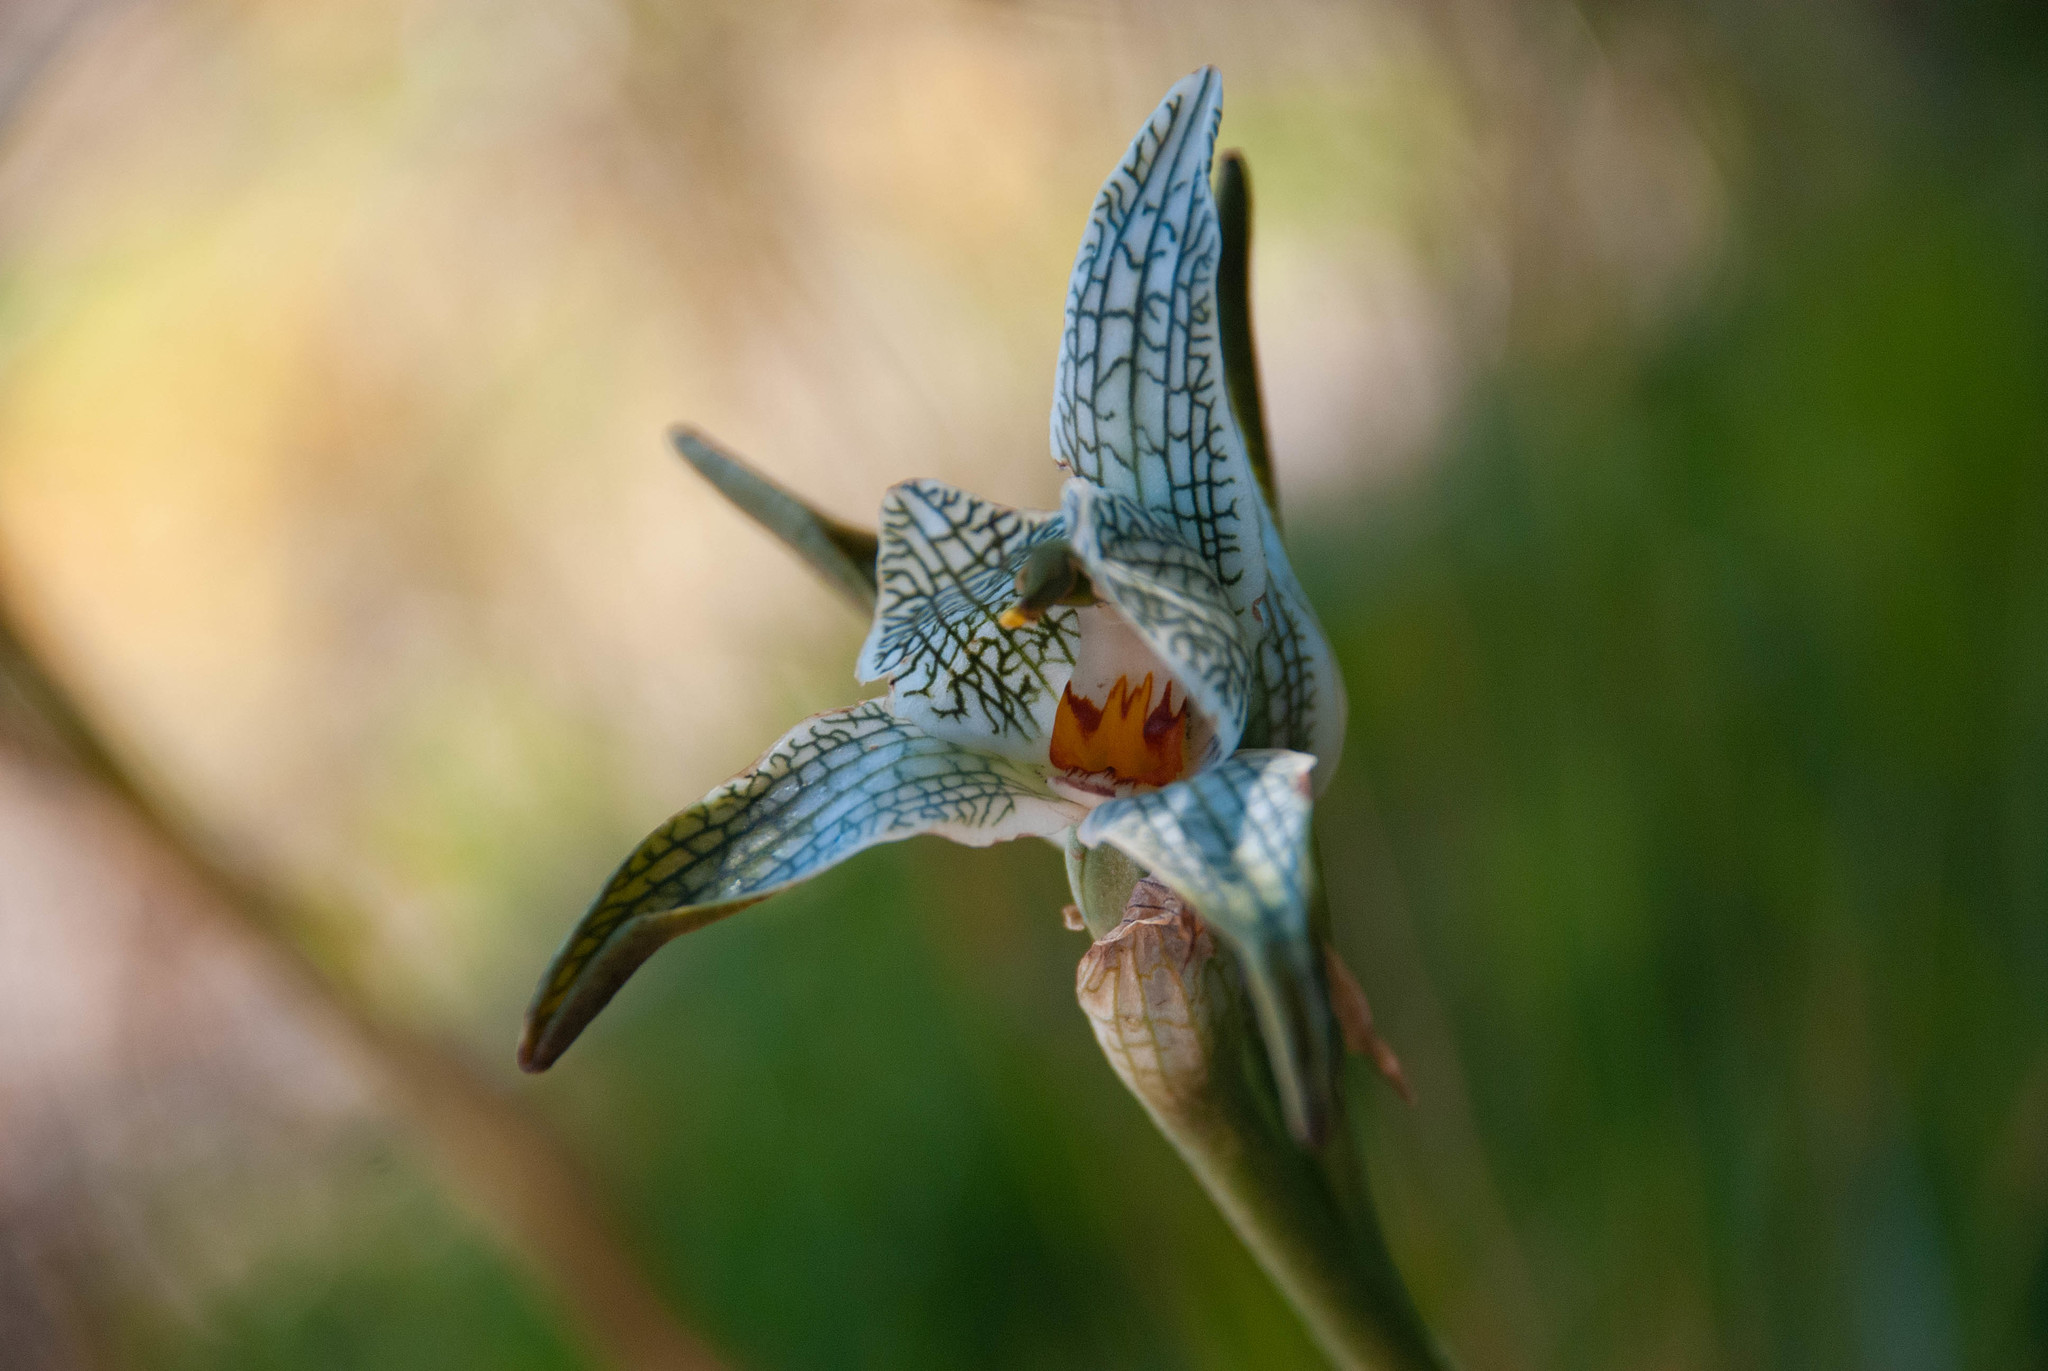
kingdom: Plantae
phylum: Tracheophyta
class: Liliopsida
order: Asparagales
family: Orchidaceae
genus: Chloraea
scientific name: Chloraea magellanica
